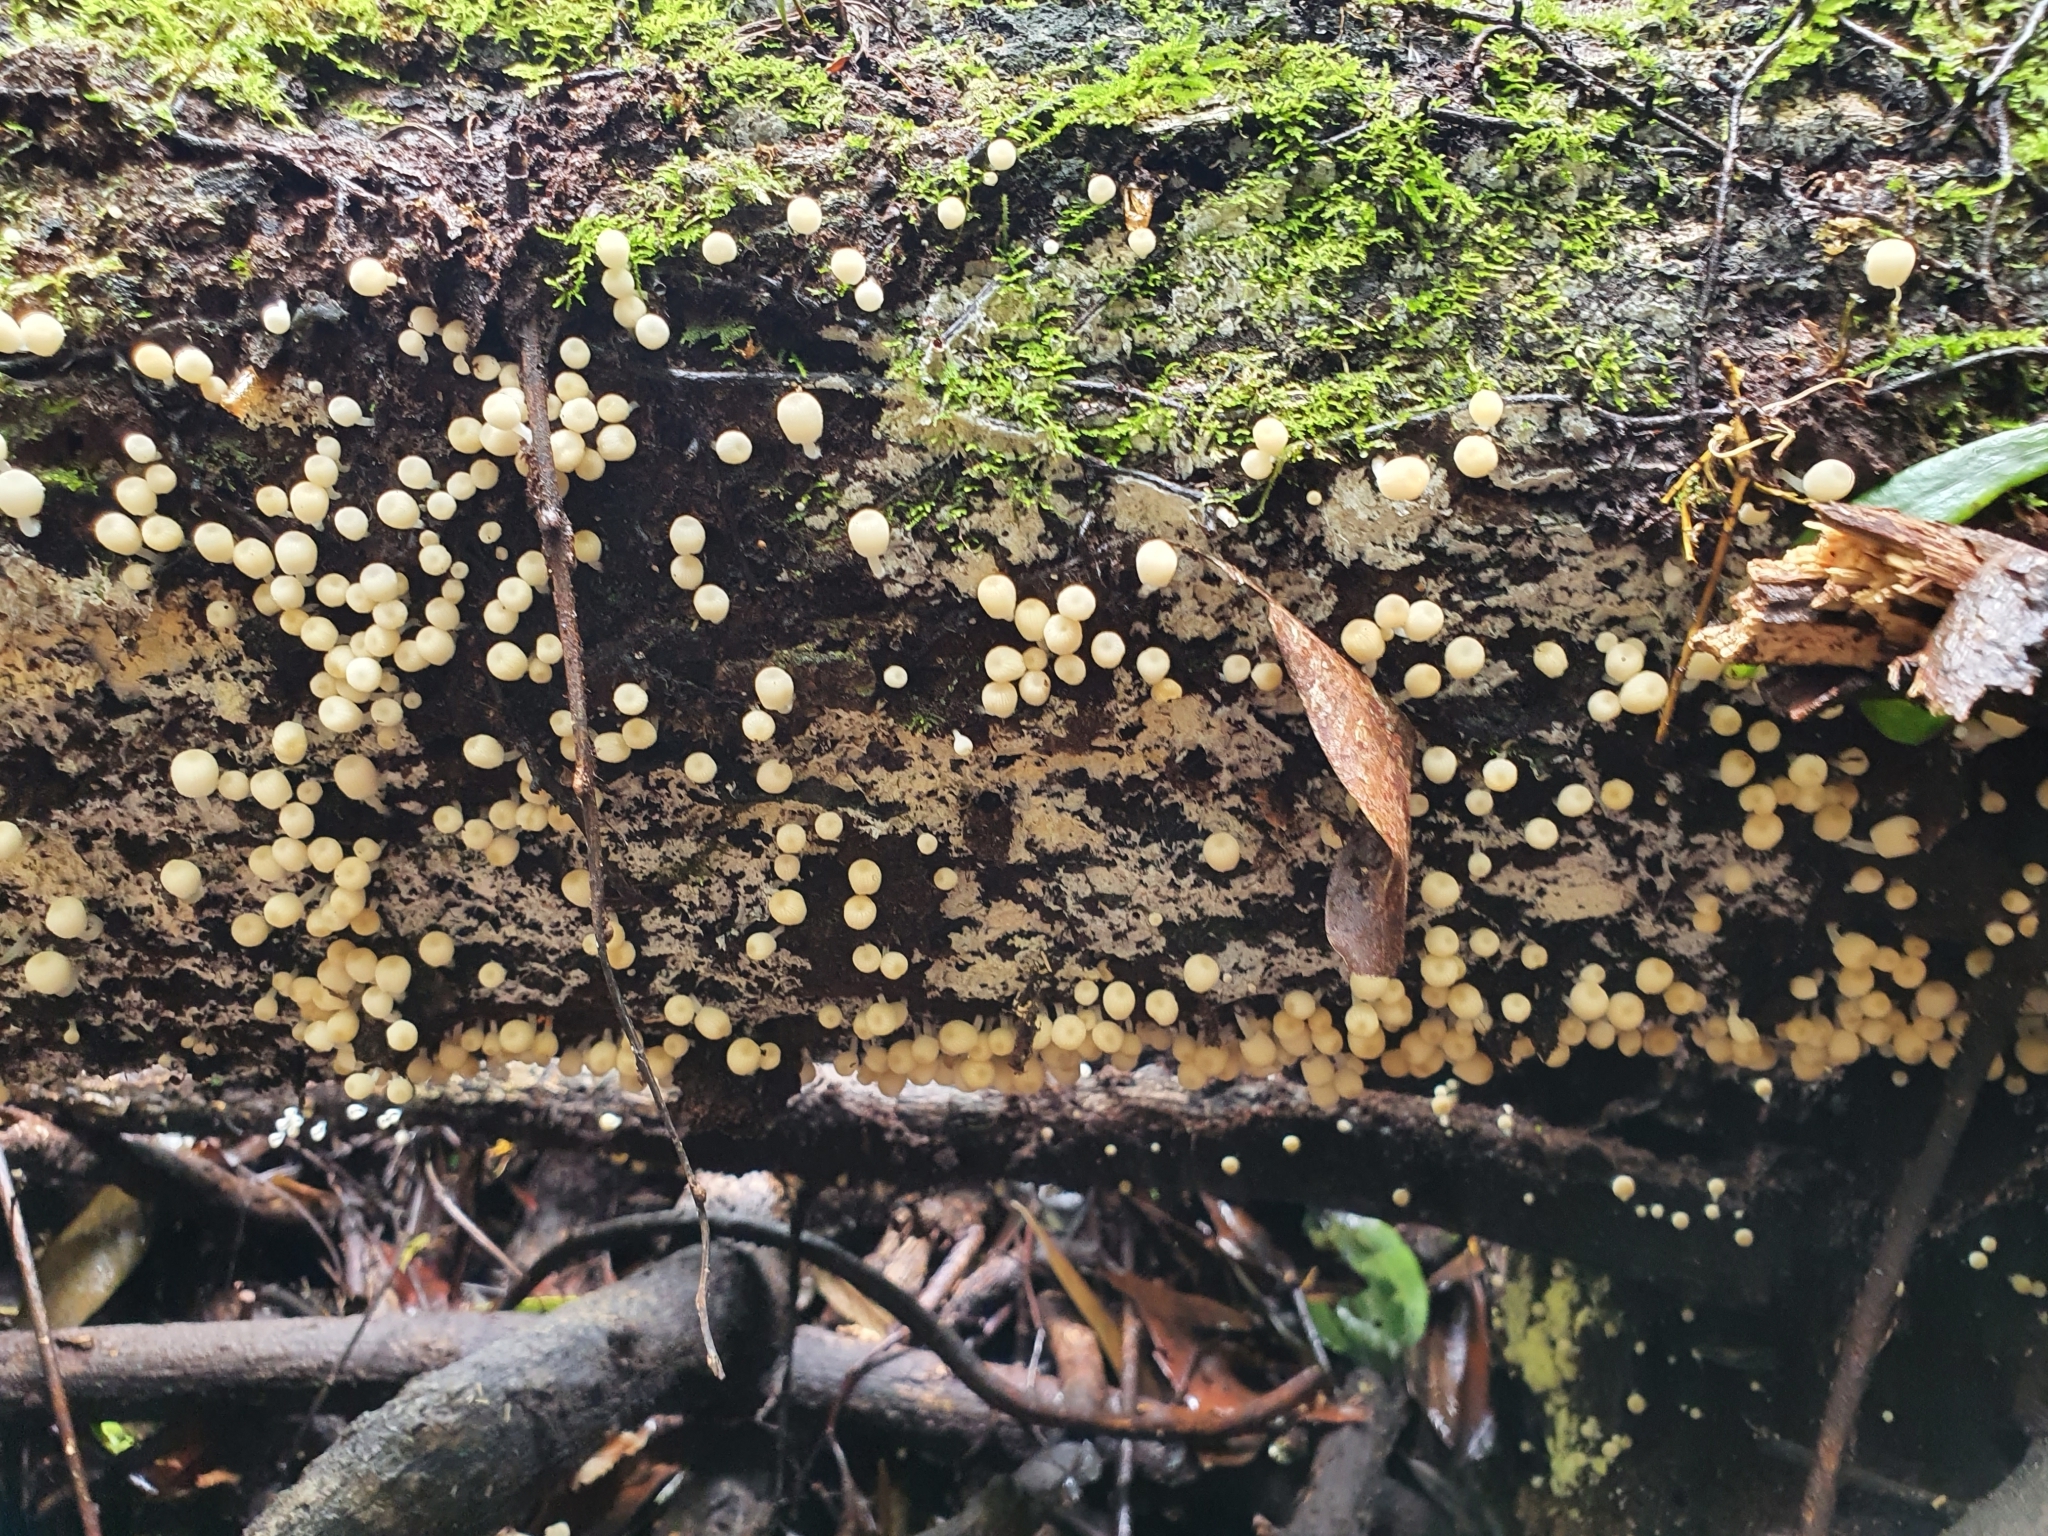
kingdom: Fungi
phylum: Basidiomycota
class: Agaricomycetes
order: Agaricales
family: Psathyrellaceae
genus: Coprinellus
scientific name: Coprinellus disseminatus
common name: Fairies' bonnets
